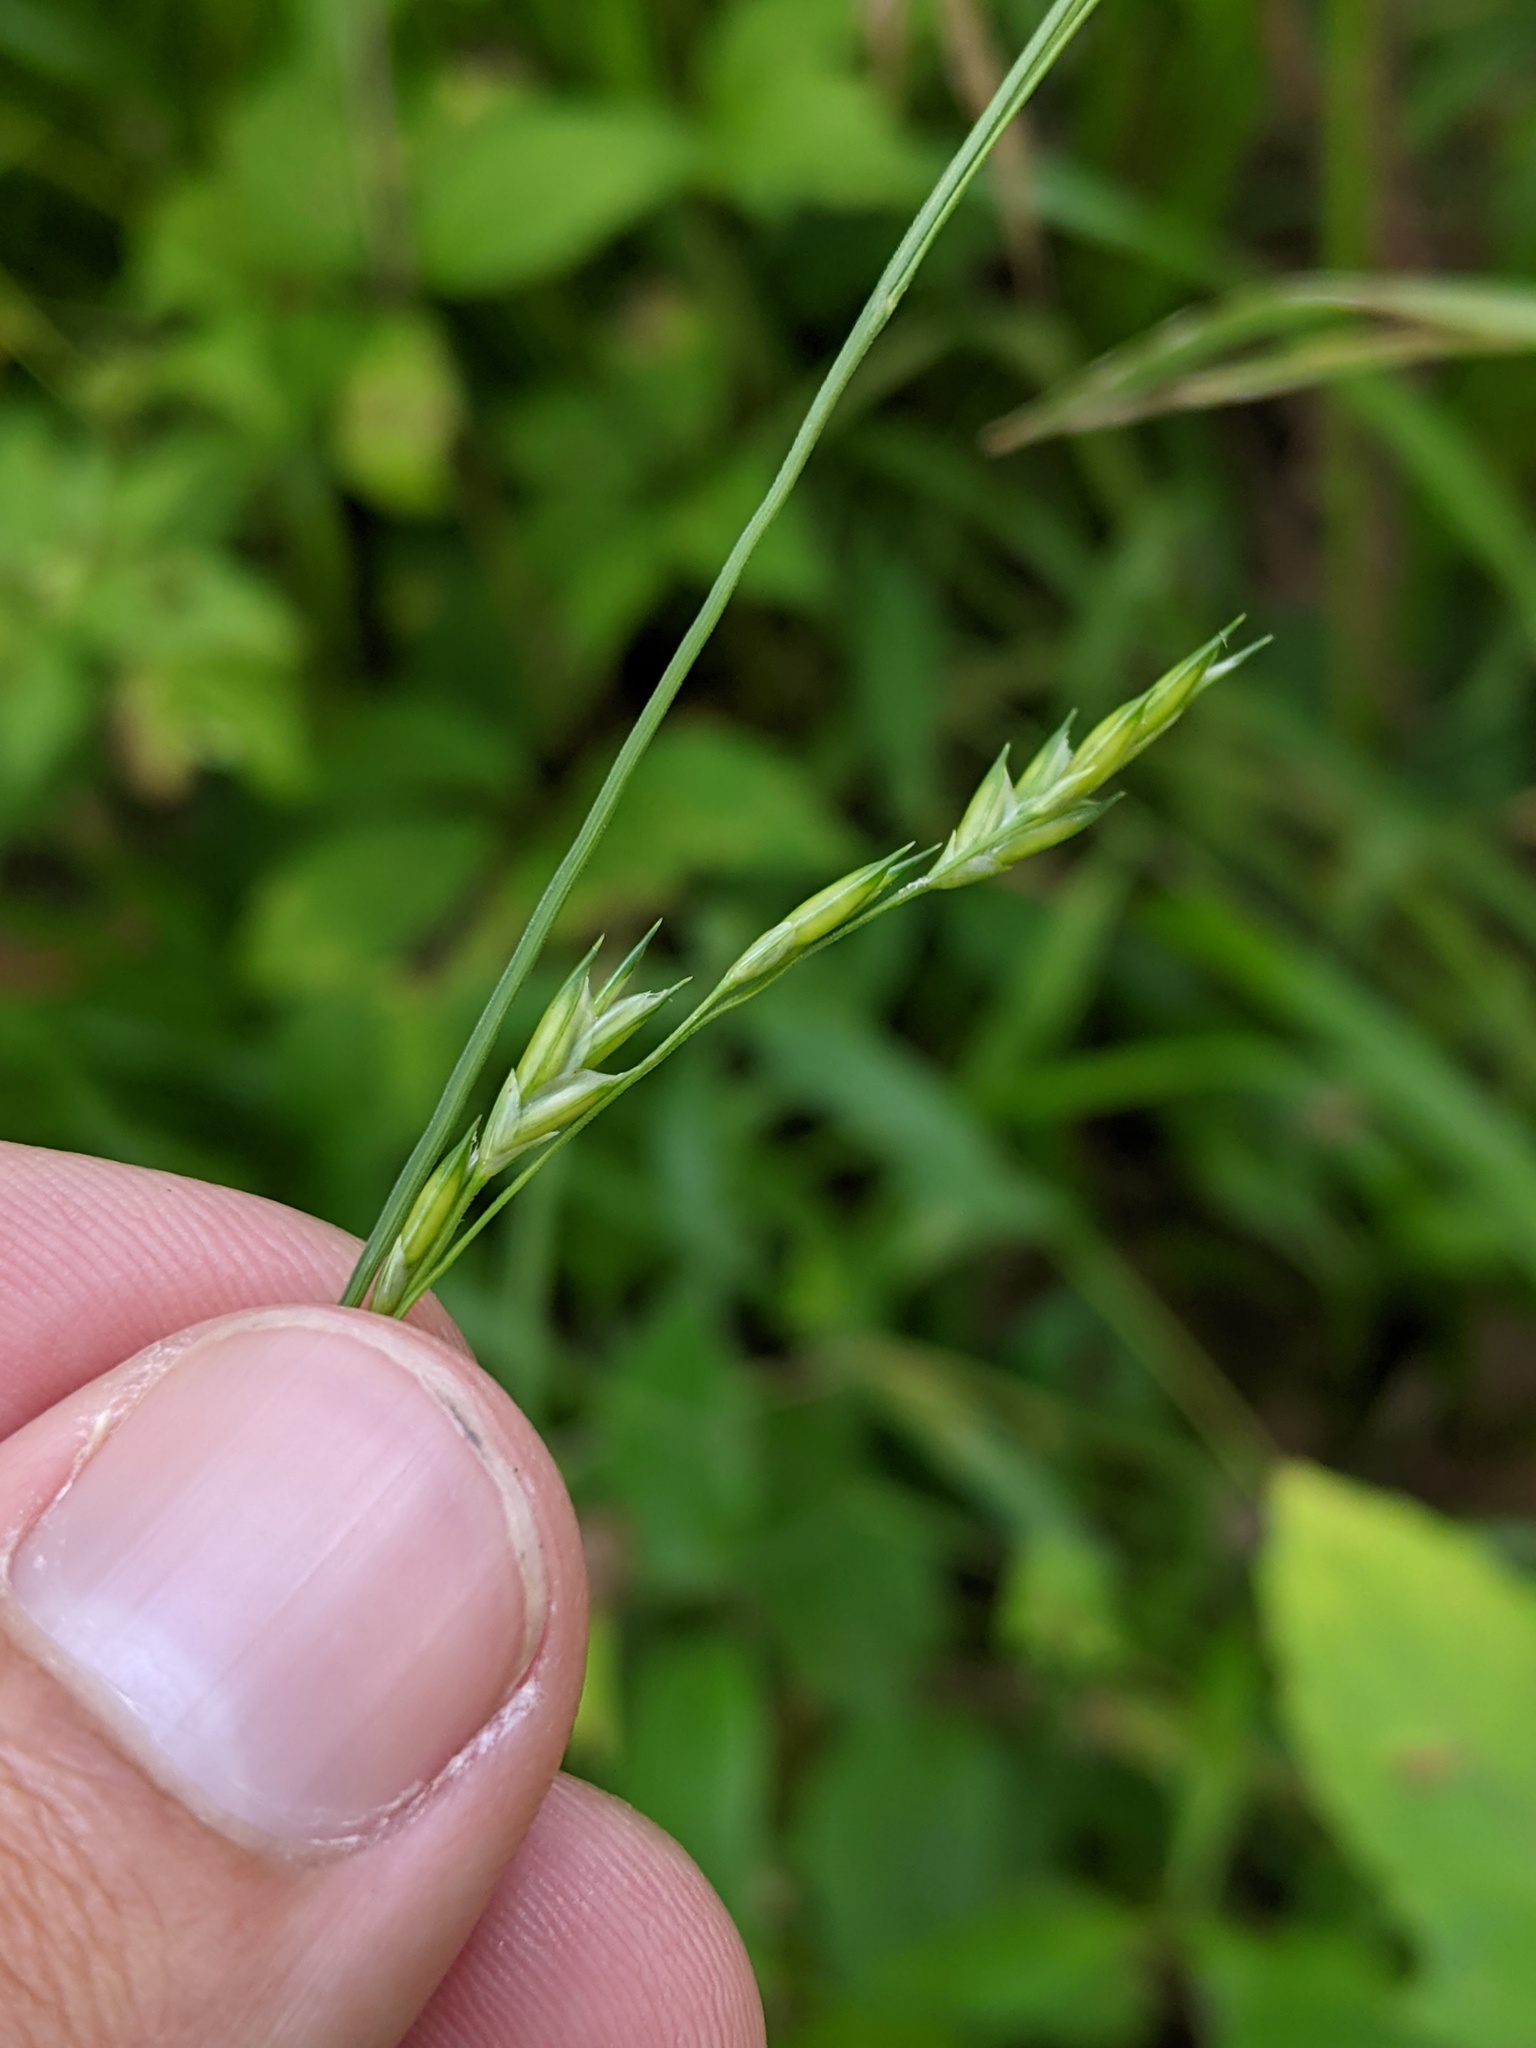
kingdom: Plantae
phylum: Tracheophyta
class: Liliopsida
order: Poales
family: Poaceae
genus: Diarrhena
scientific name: Diarrhena obovata
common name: Beakgrass
